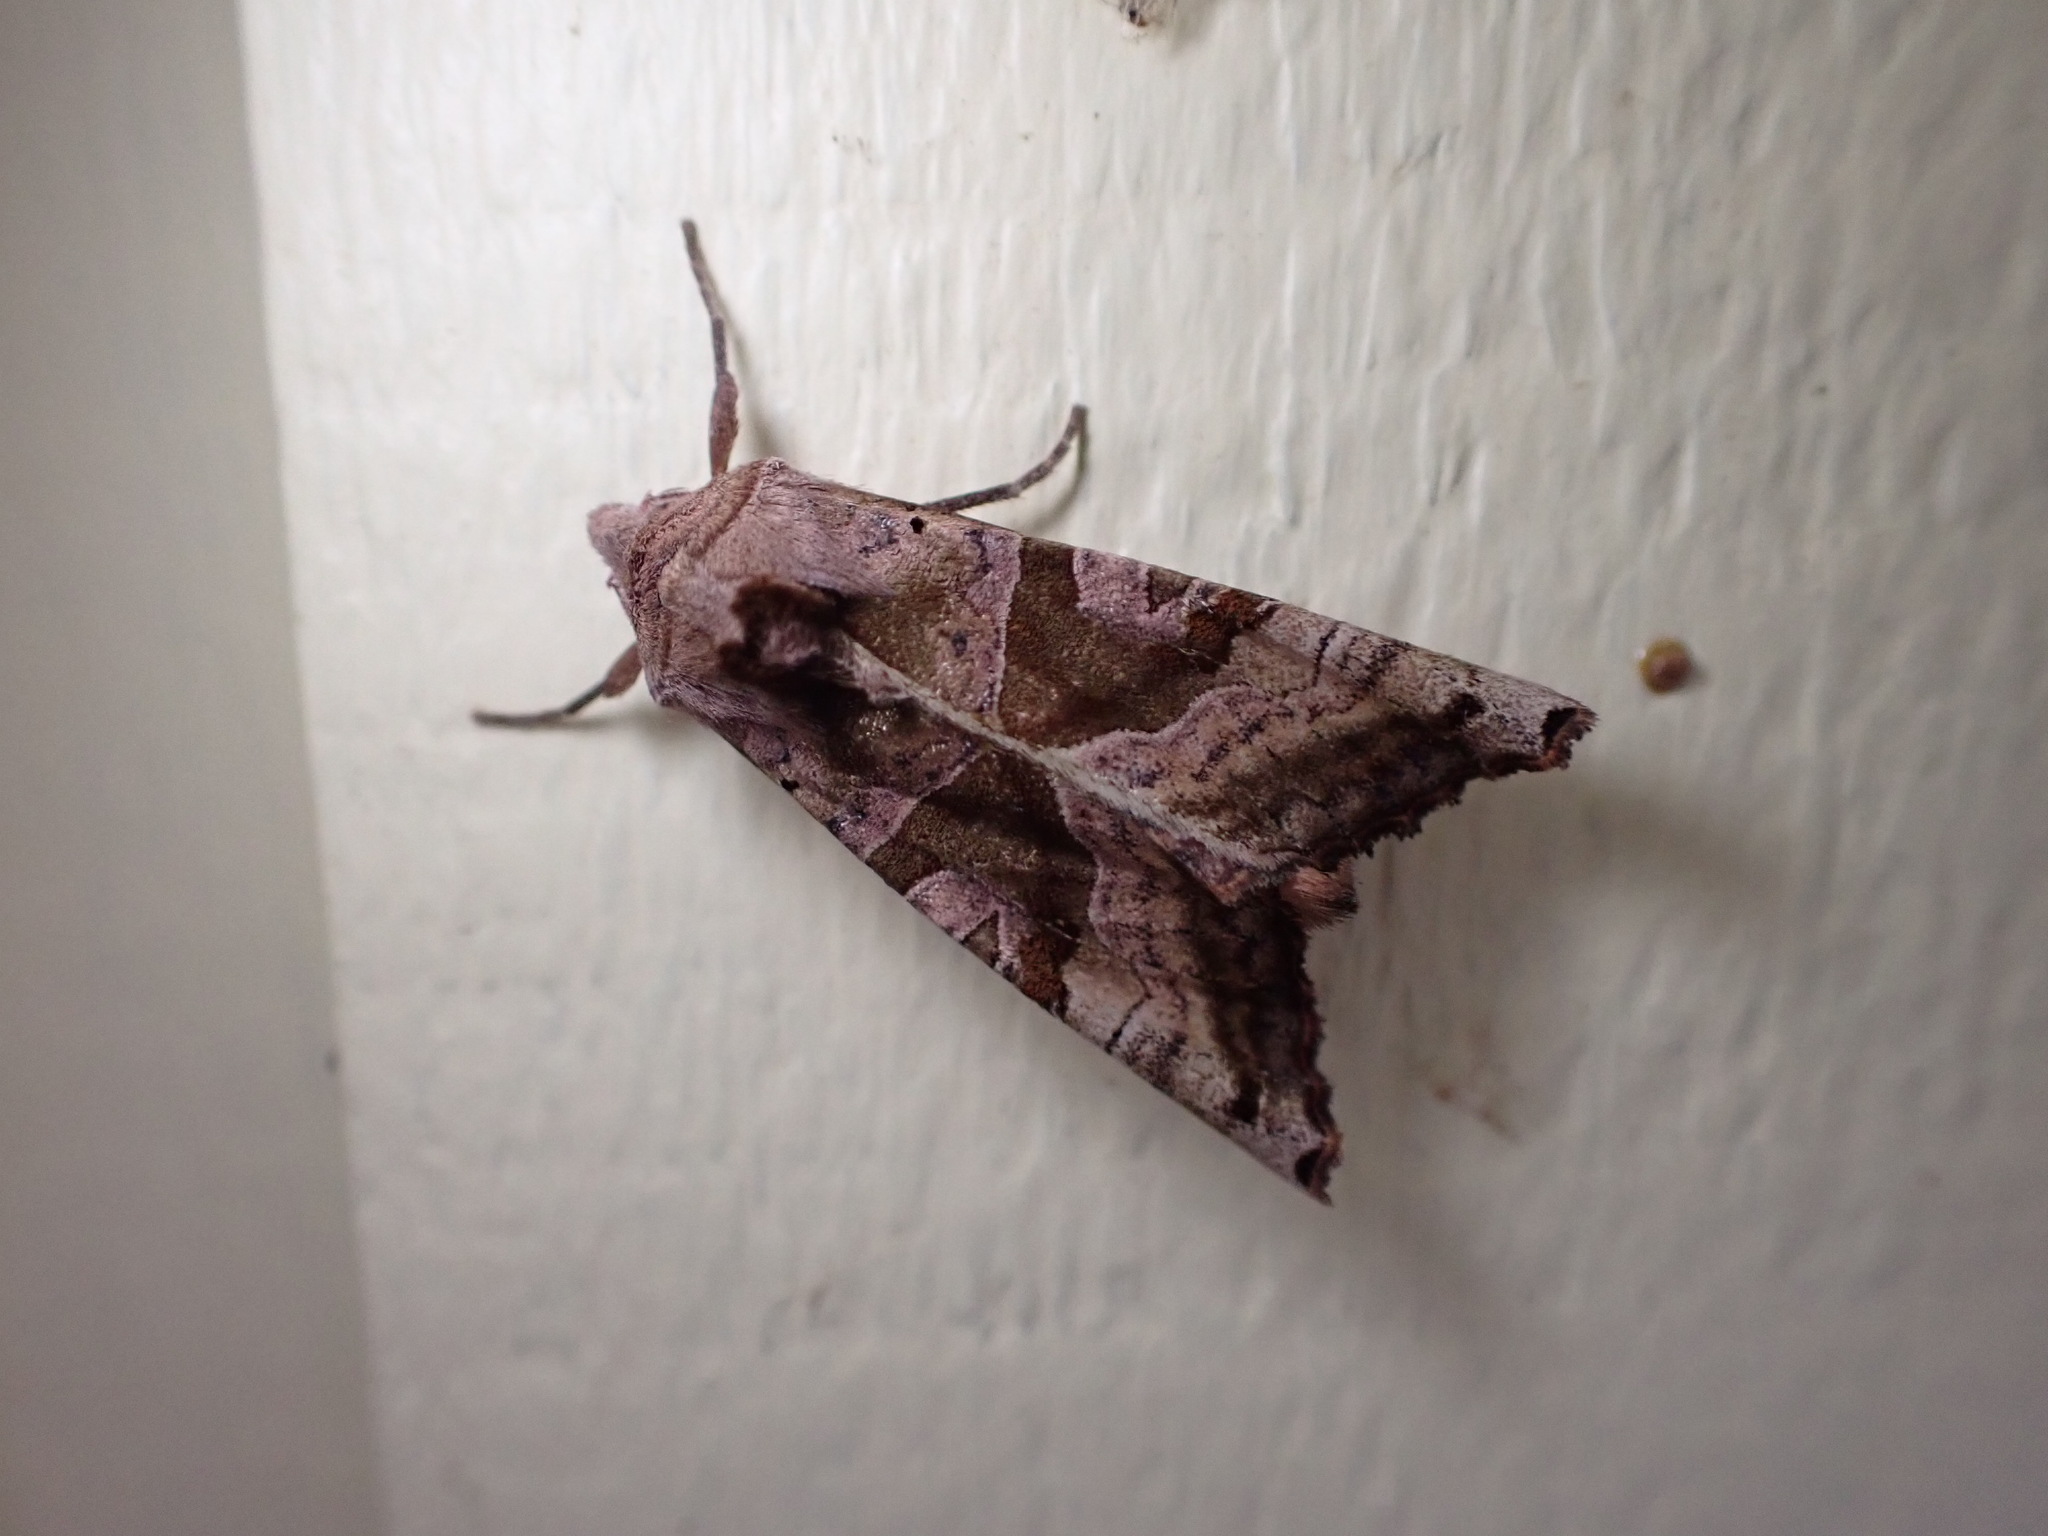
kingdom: Animalia
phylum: Arthropoda
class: Insecta
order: Lepidoptera
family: Noctuidae
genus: Phlogophora
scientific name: Phlogophora periculosa
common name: Brown angle shades
